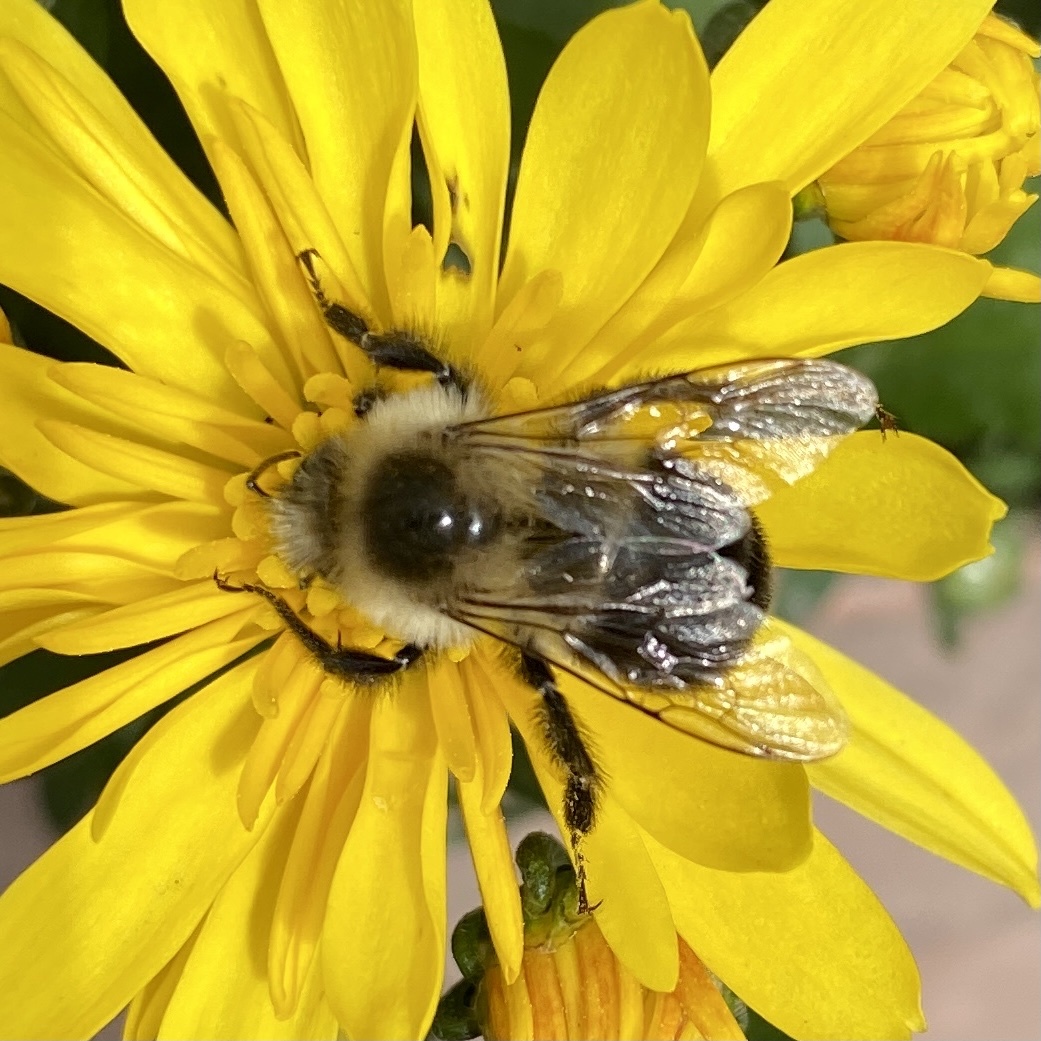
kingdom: Animalia
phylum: Arthropoda
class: Insecta
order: Hymenoptera
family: Apidae
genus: Bombus
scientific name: Bombus impatiens
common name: Common eastern bumble bee
